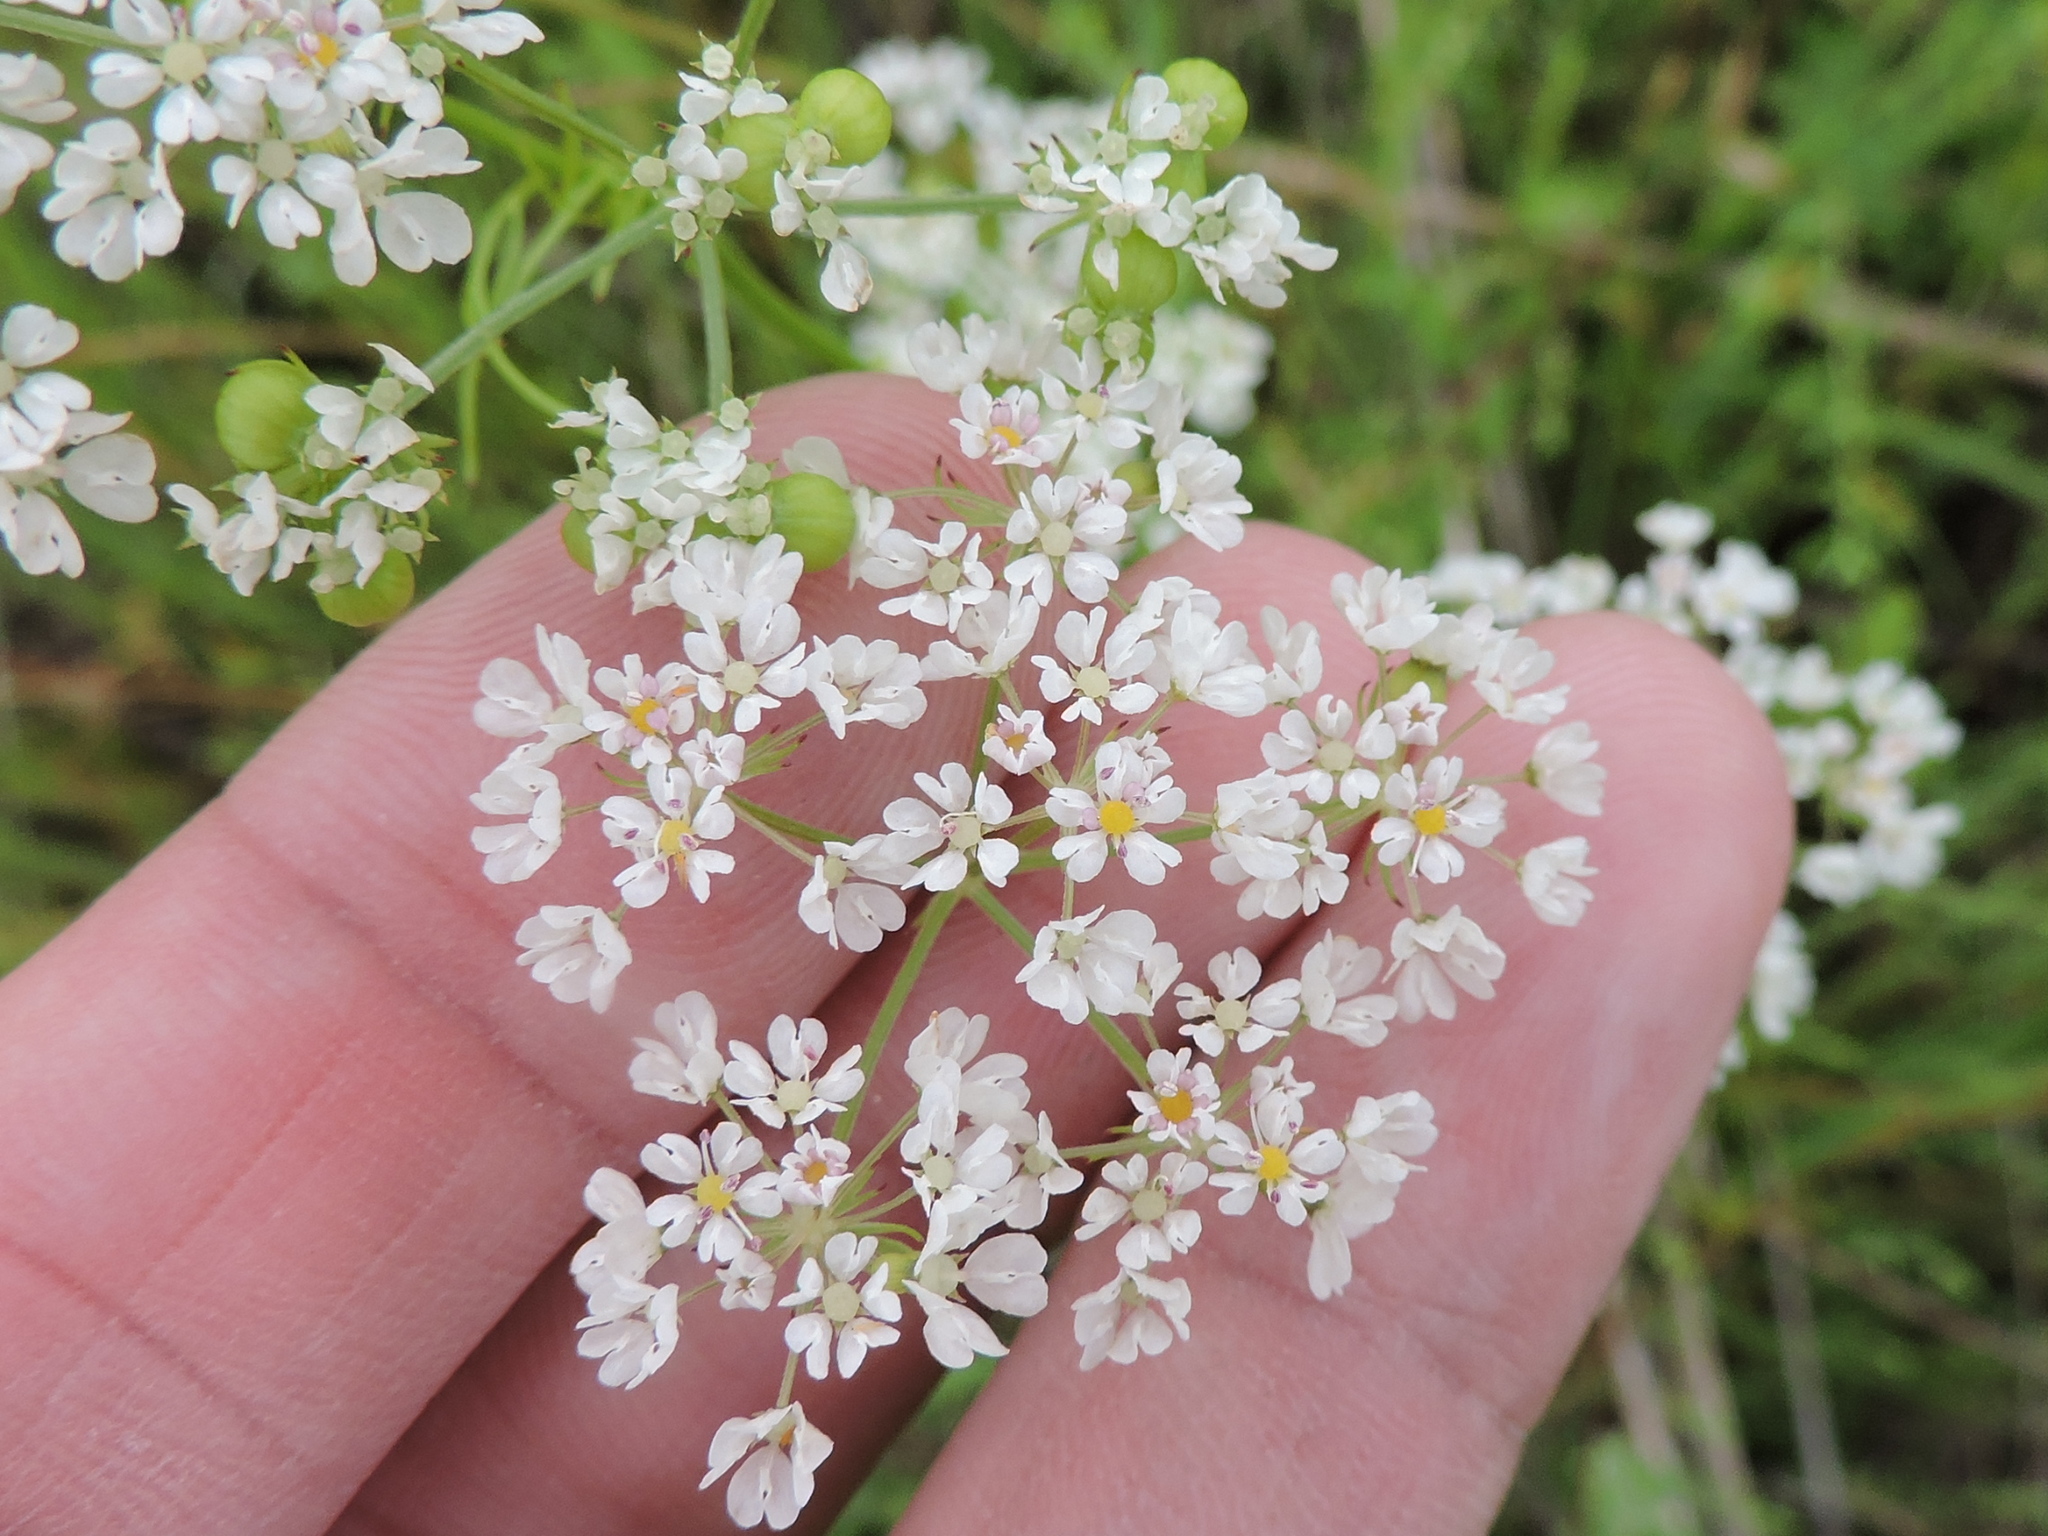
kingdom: Plantae
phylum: Tracheophyta
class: Magnoliopsida
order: Apiales
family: Apiaceae
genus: Atrema
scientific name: Atrema americanum
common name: Prairie-bishop
